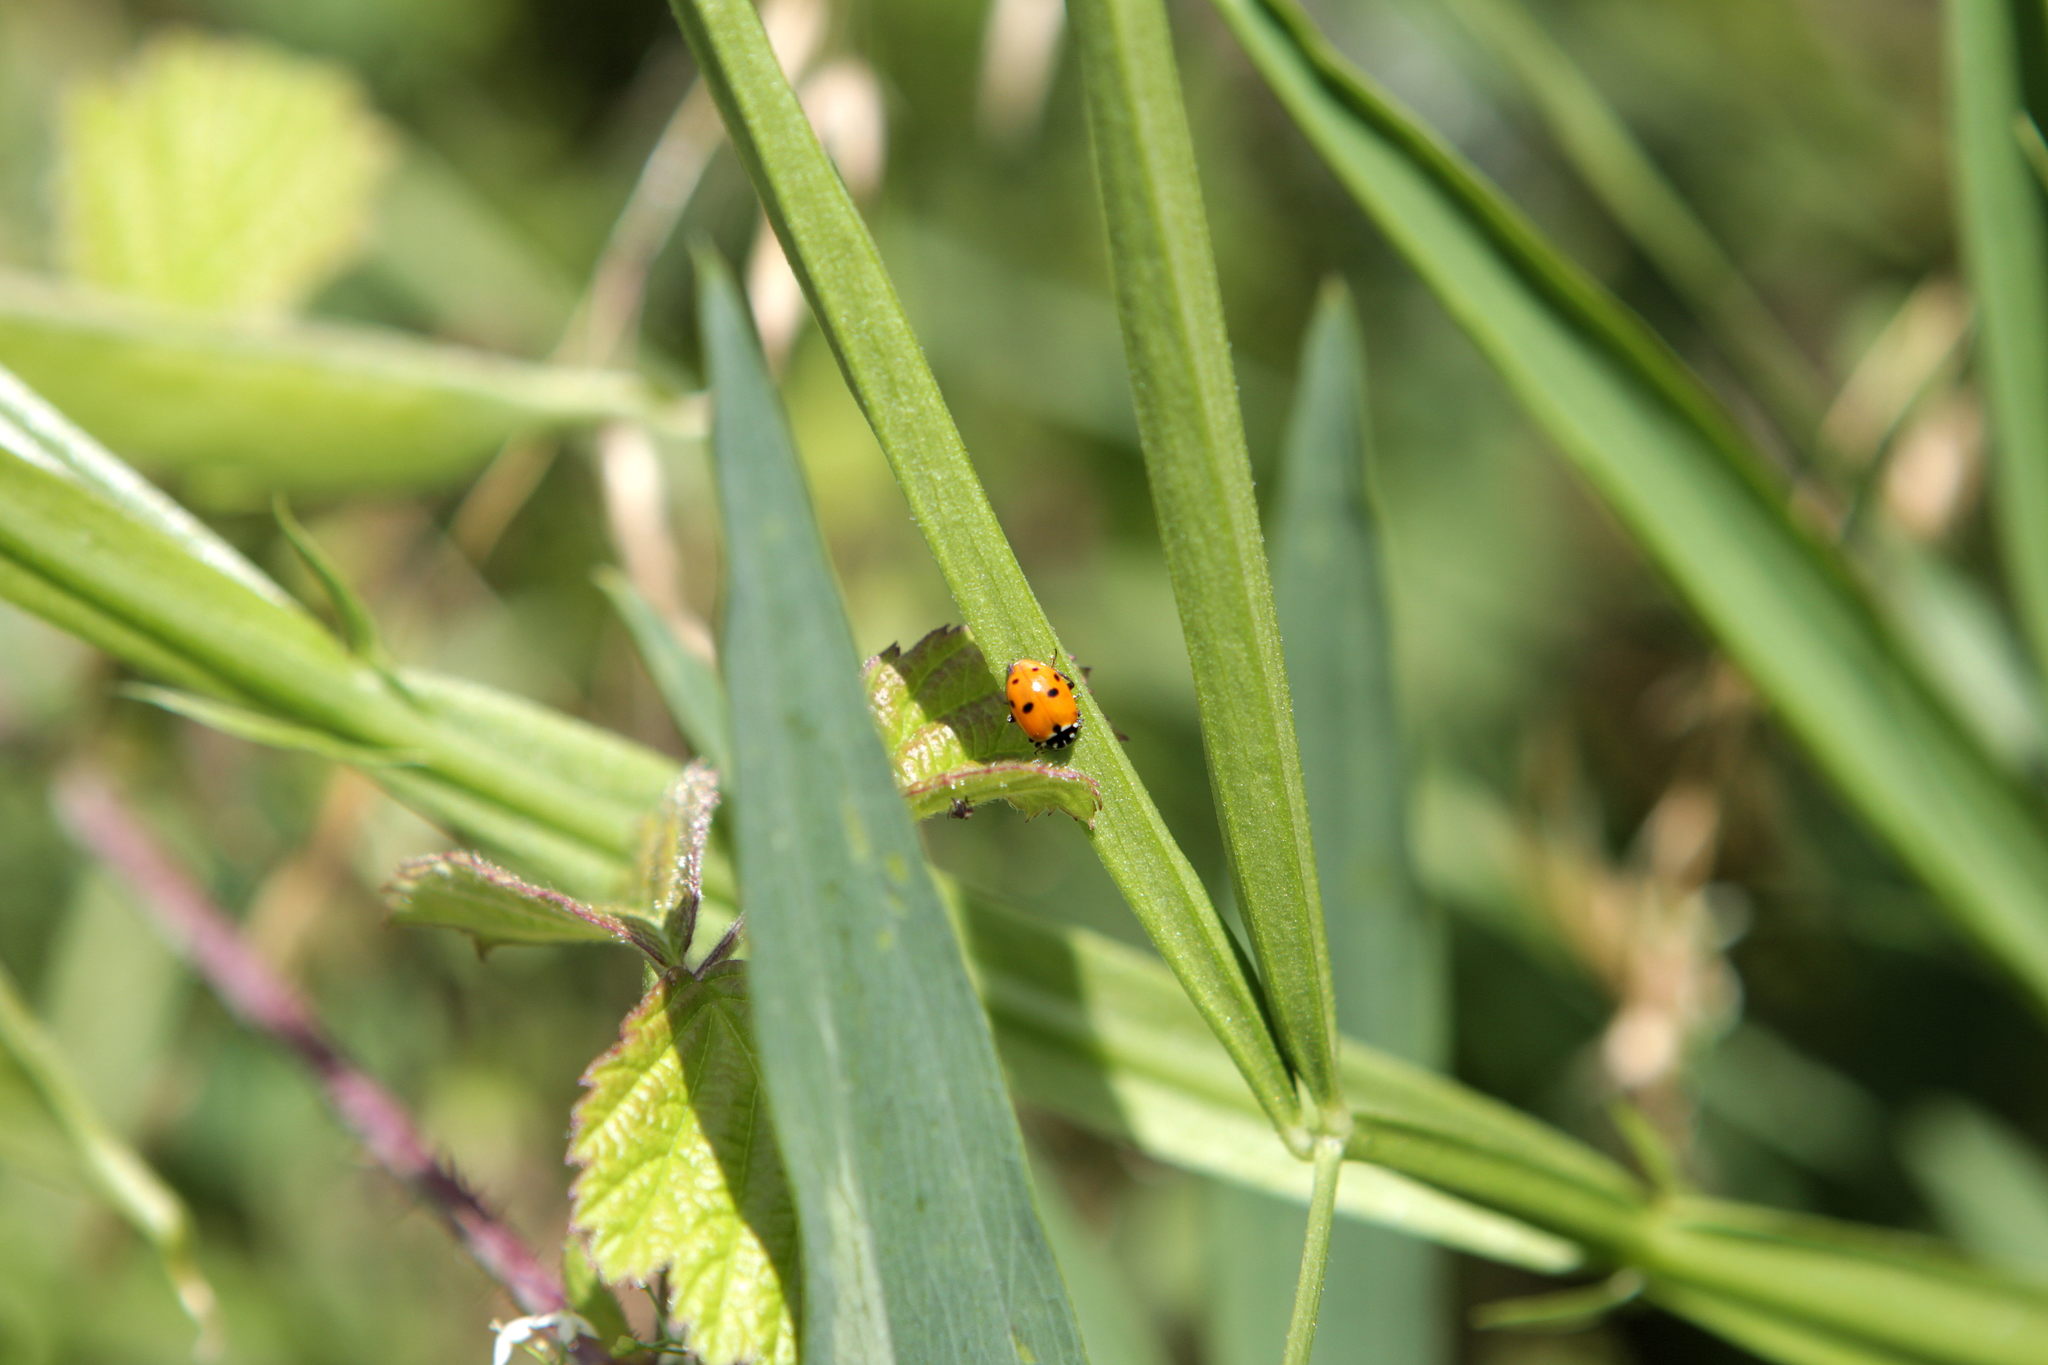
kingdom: Animalia
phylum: Arthropoda
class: Insecta
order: Coleoptera
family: Coccinellidae
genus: Hippodamia
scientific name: Hippodamia variegata
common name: Ladybird beetle
